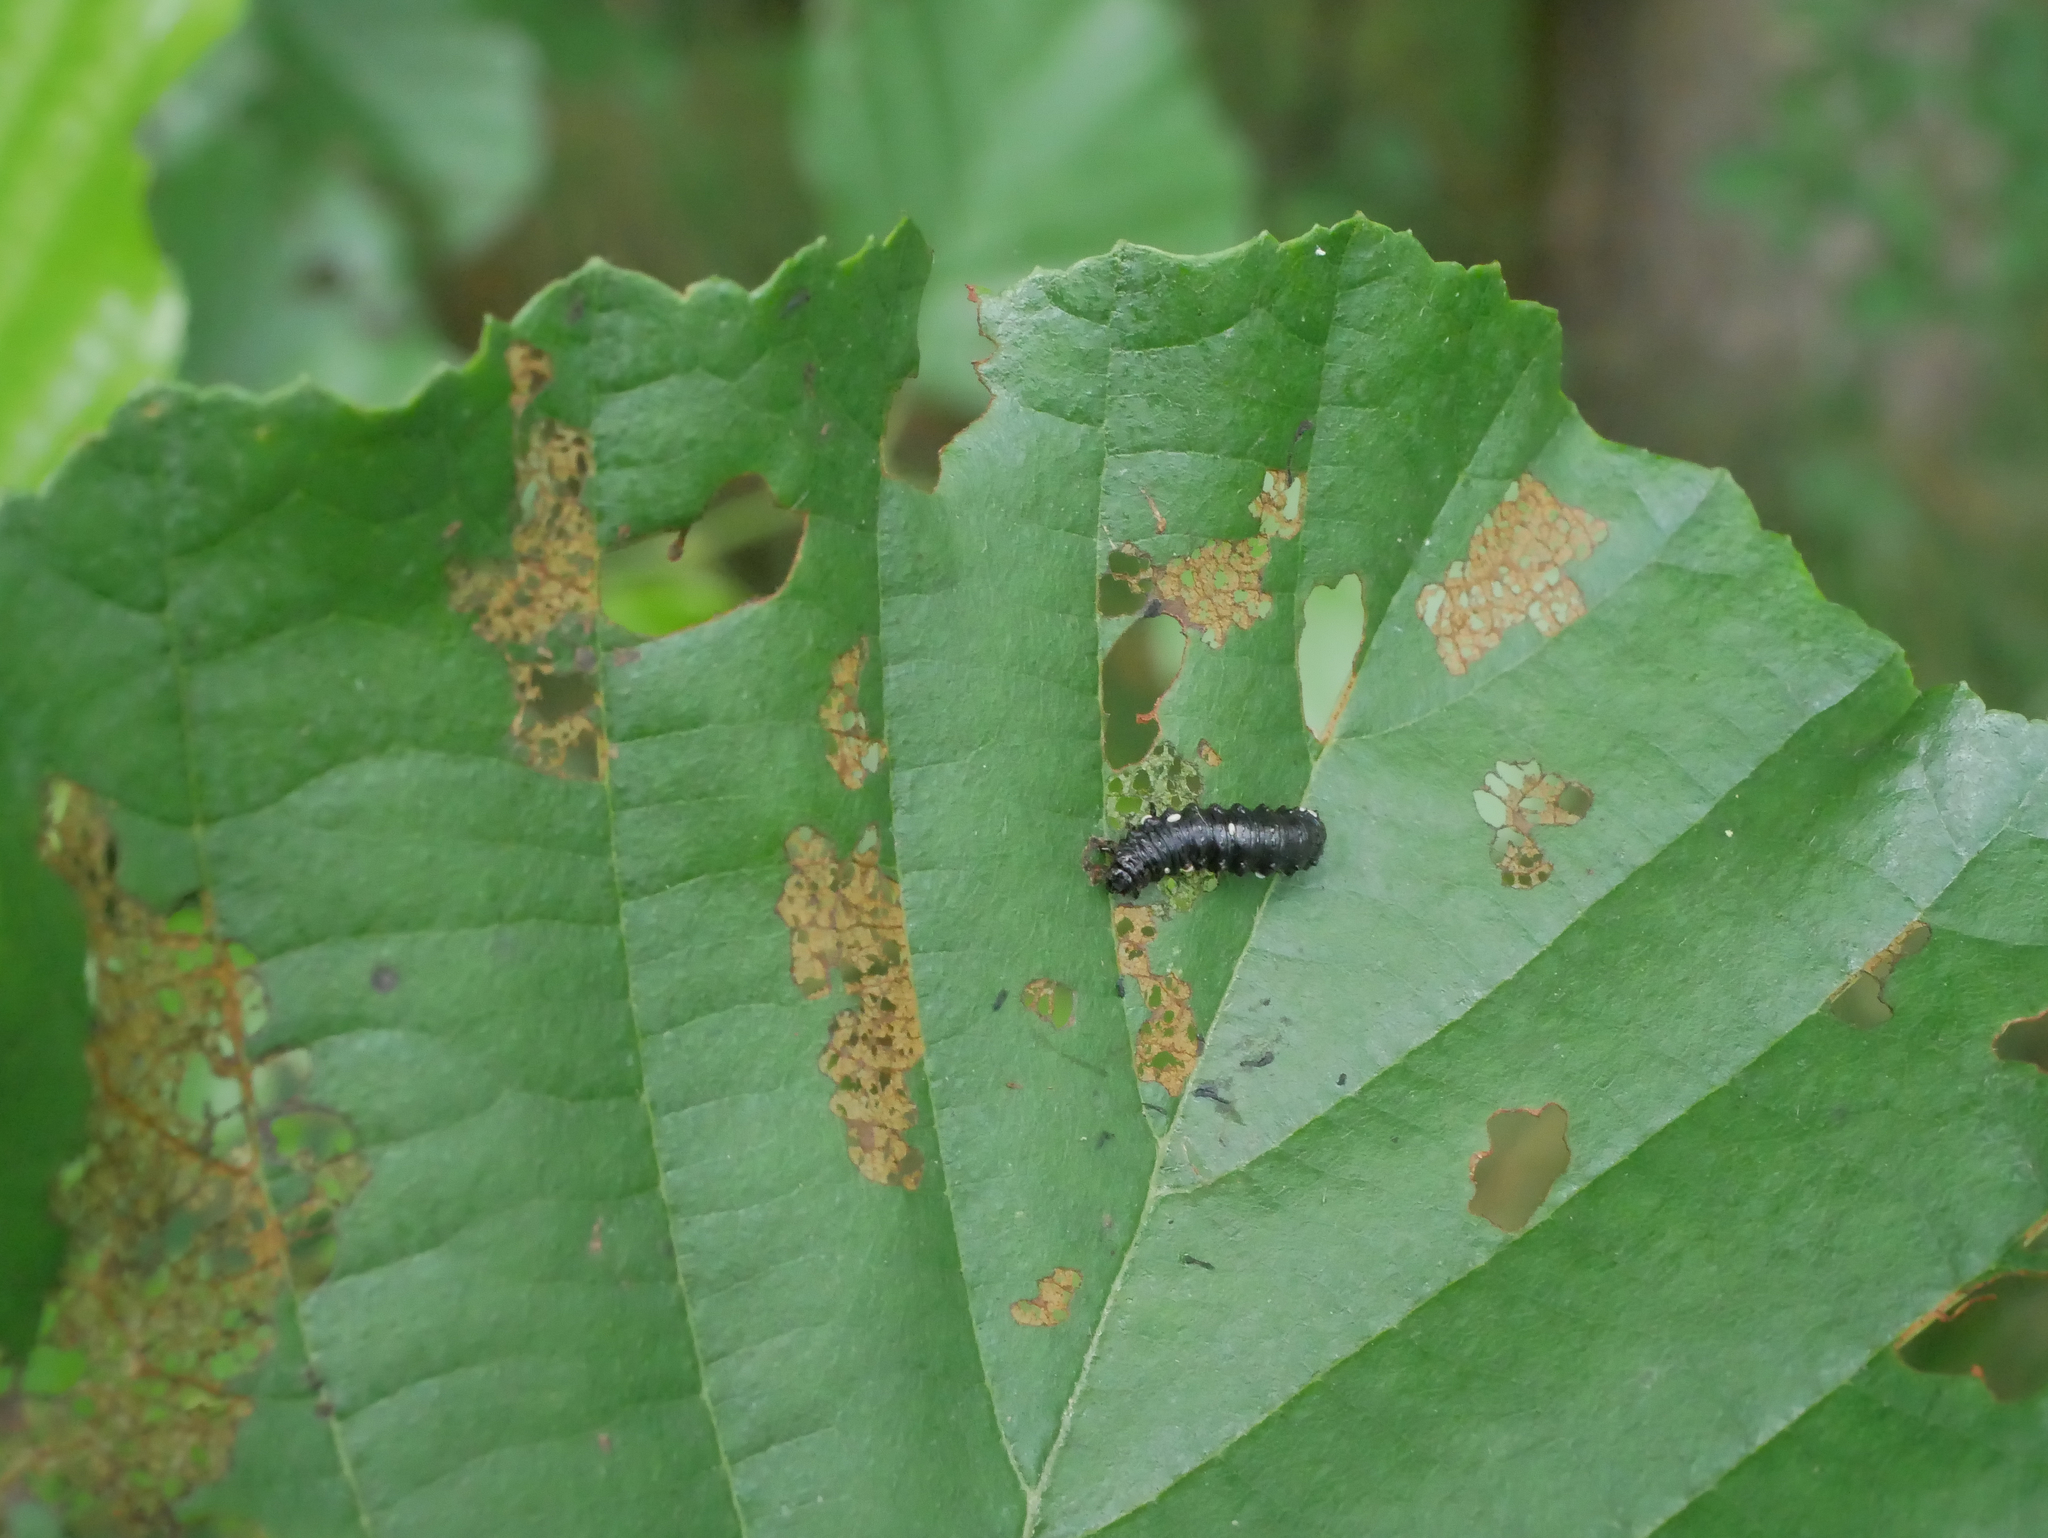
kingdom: Animalia
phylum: Arthropoda
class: Insecta
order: Coleoptera
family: Chrysomelidae
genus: Agelastica
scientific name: Agelastica alni
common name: Alder leaf beetle
